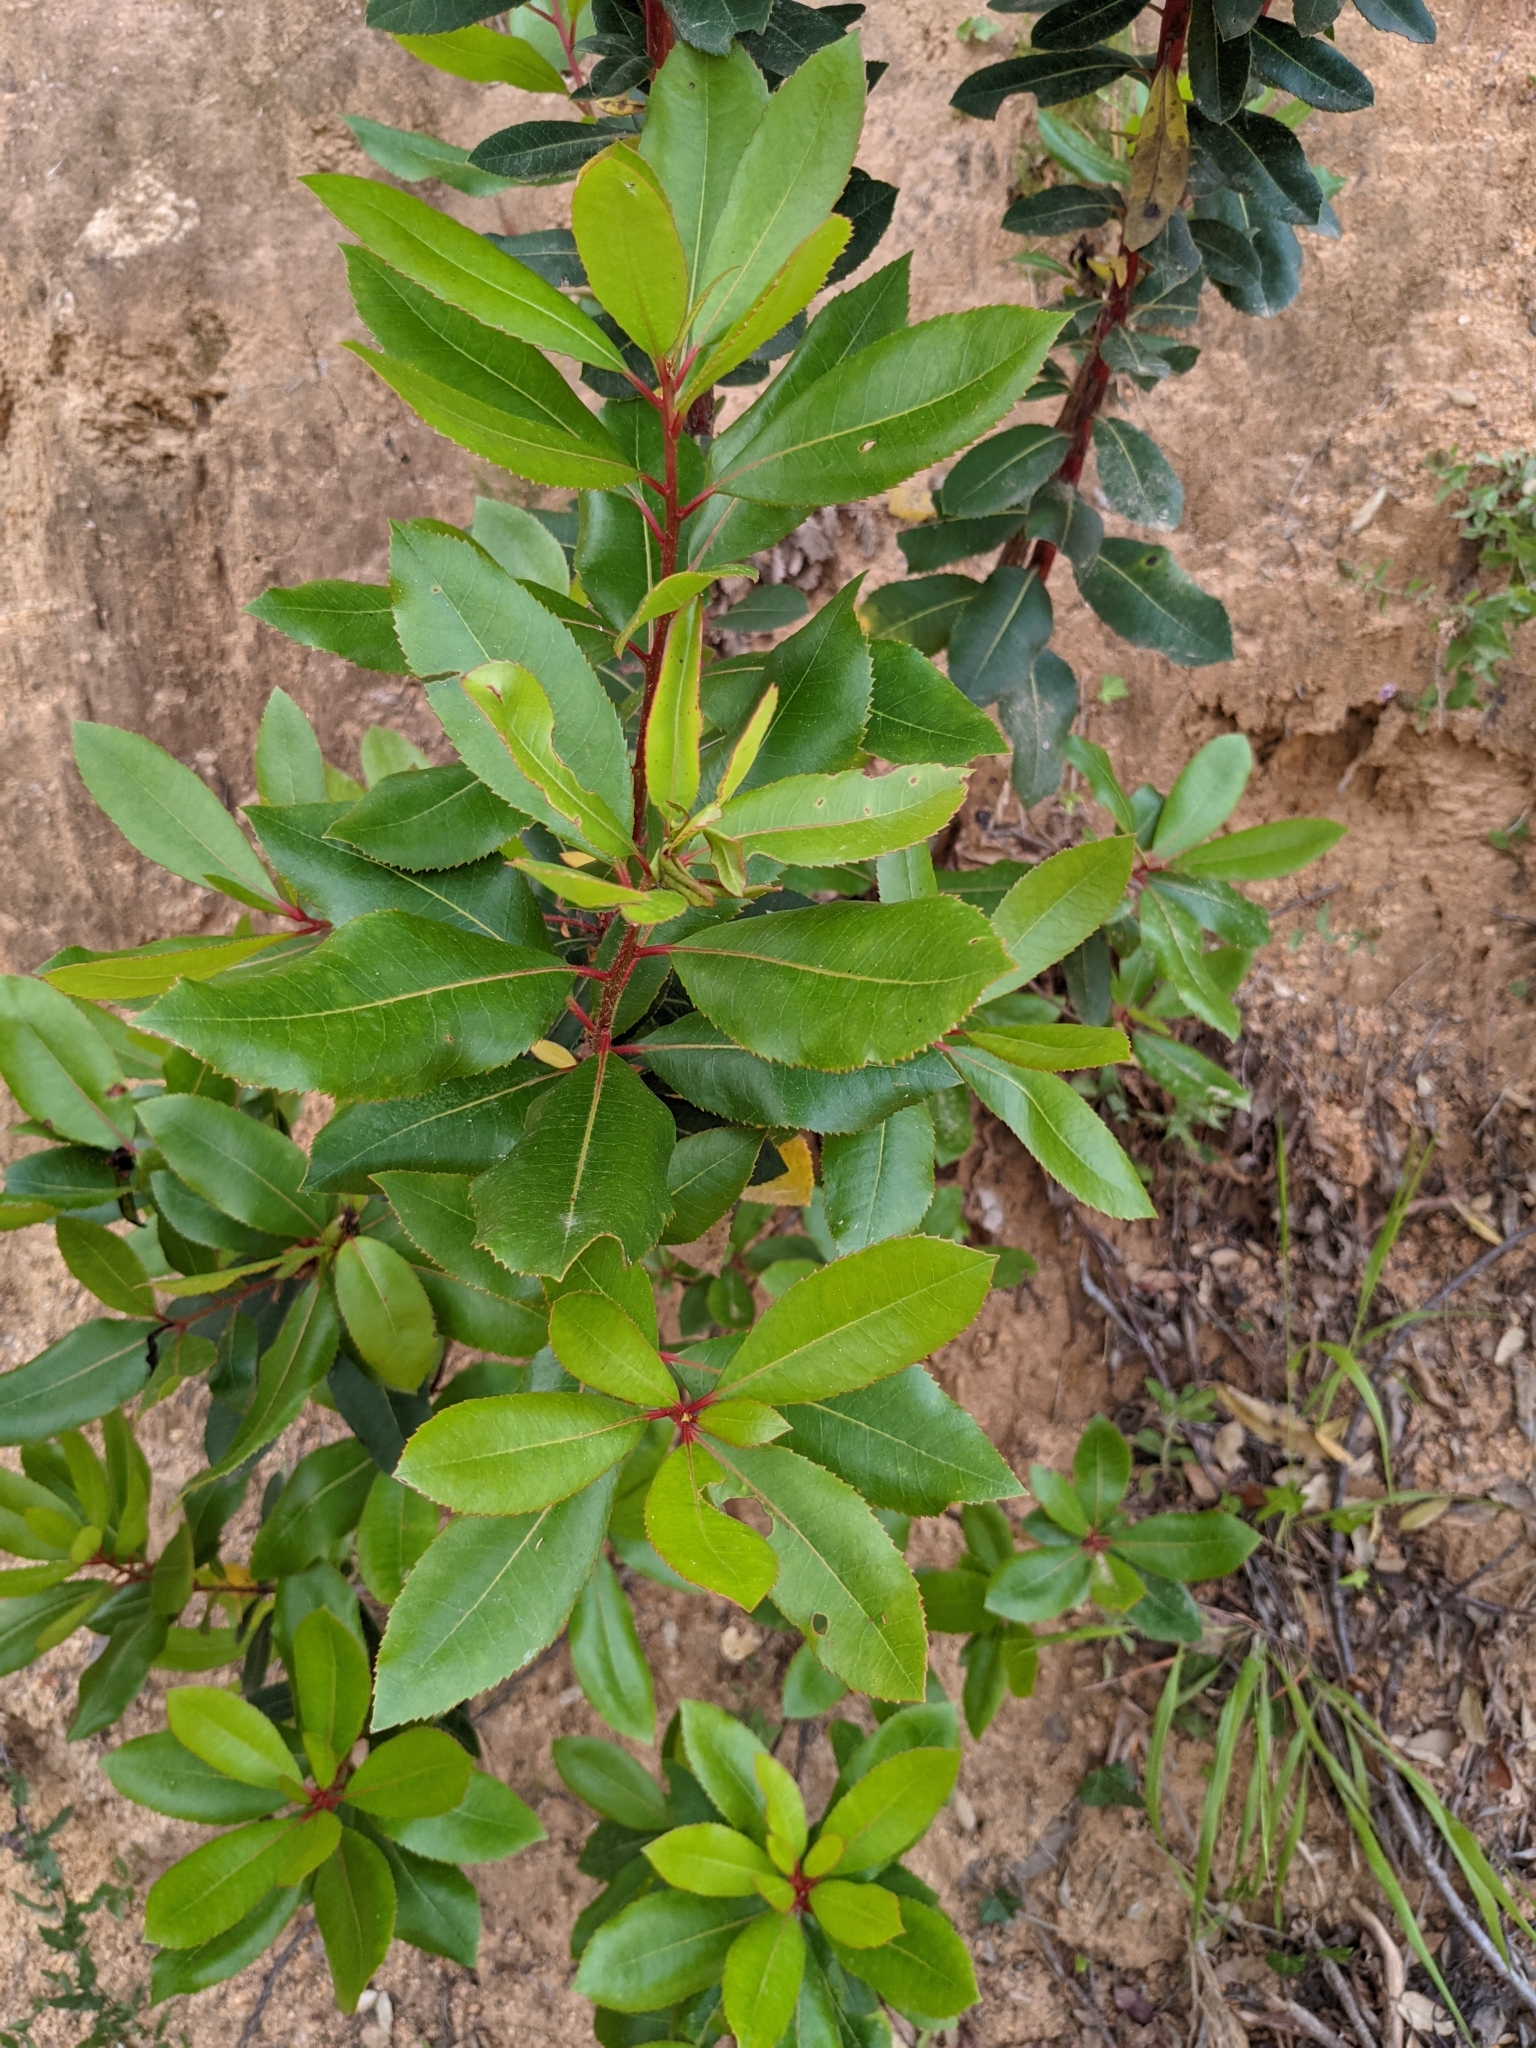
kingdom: Plantae
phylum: Tracheophyta
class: Magnoliopsida
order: Ericales
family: Ericaceae
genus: Arbutus
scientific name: Arbutus unedo
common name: Strawberry-tree
